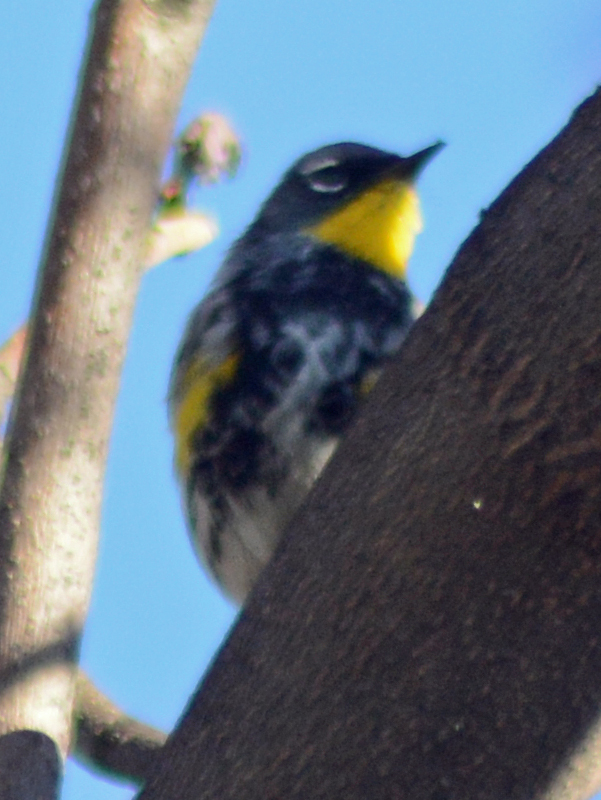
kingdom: Animalia
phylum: Chordata
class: Aves
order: Passeriformes
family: Parulidae
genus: Setophaga
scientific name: Setophaga coronata
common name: Myrtle warbler
